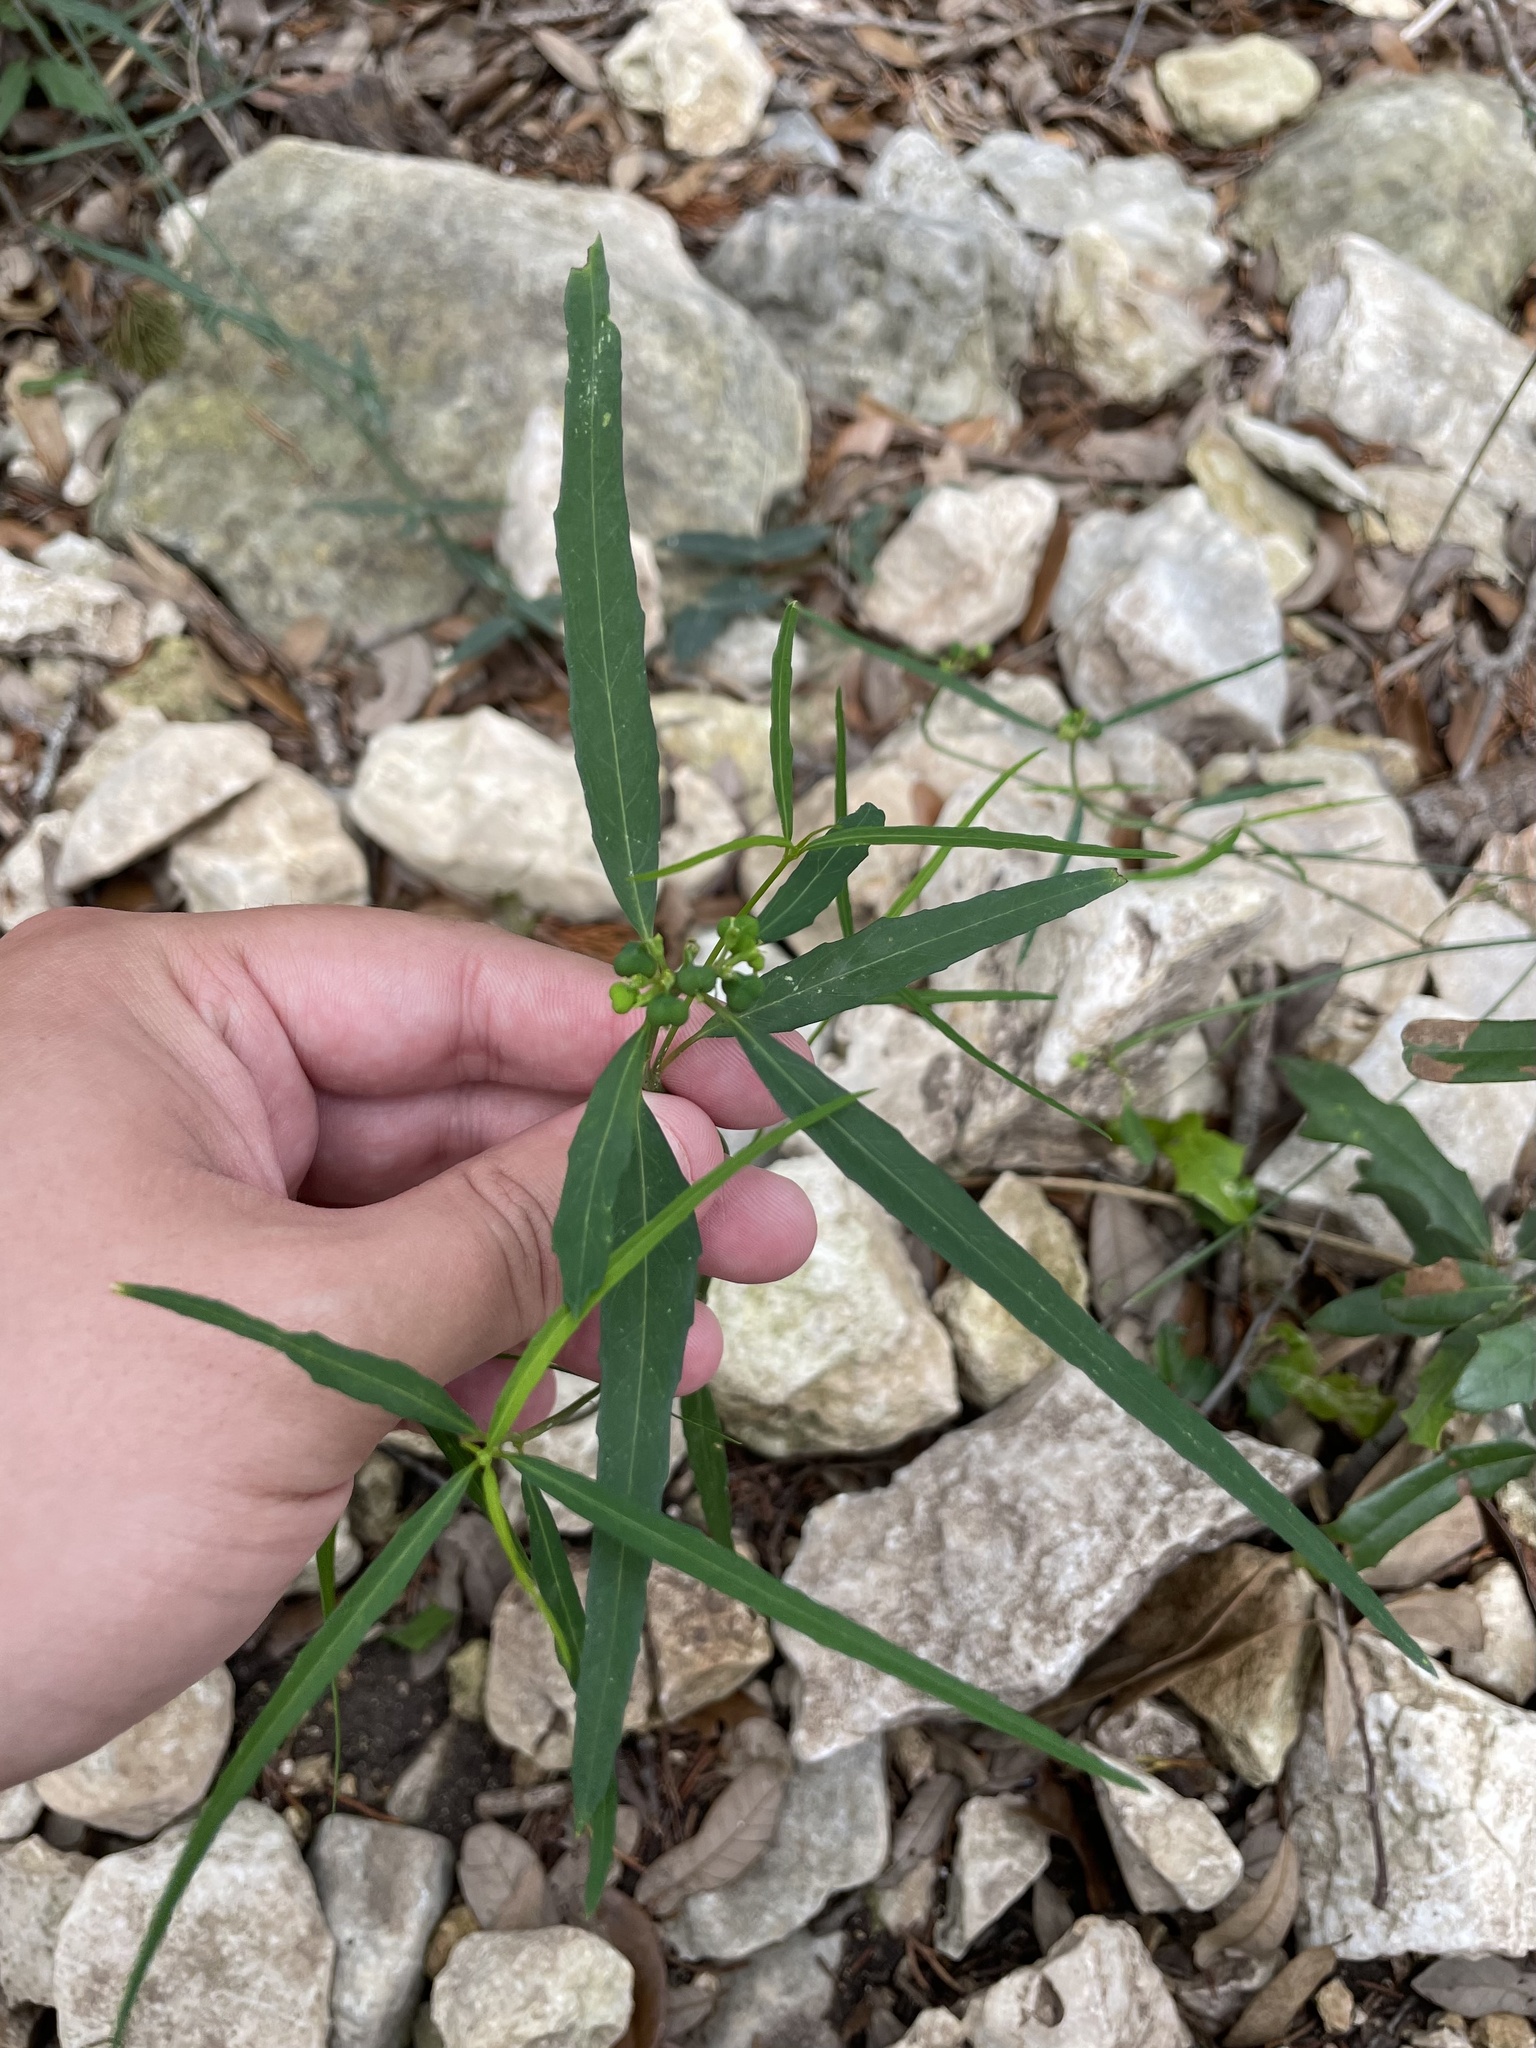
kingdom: Plantae
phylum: Tracheophyta
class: Magnoliopsida
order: Malpighiales
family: Euphorbiaceae
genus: Euphorbia
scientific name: Euphorbia heterophylla
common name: Mexican fireplant
